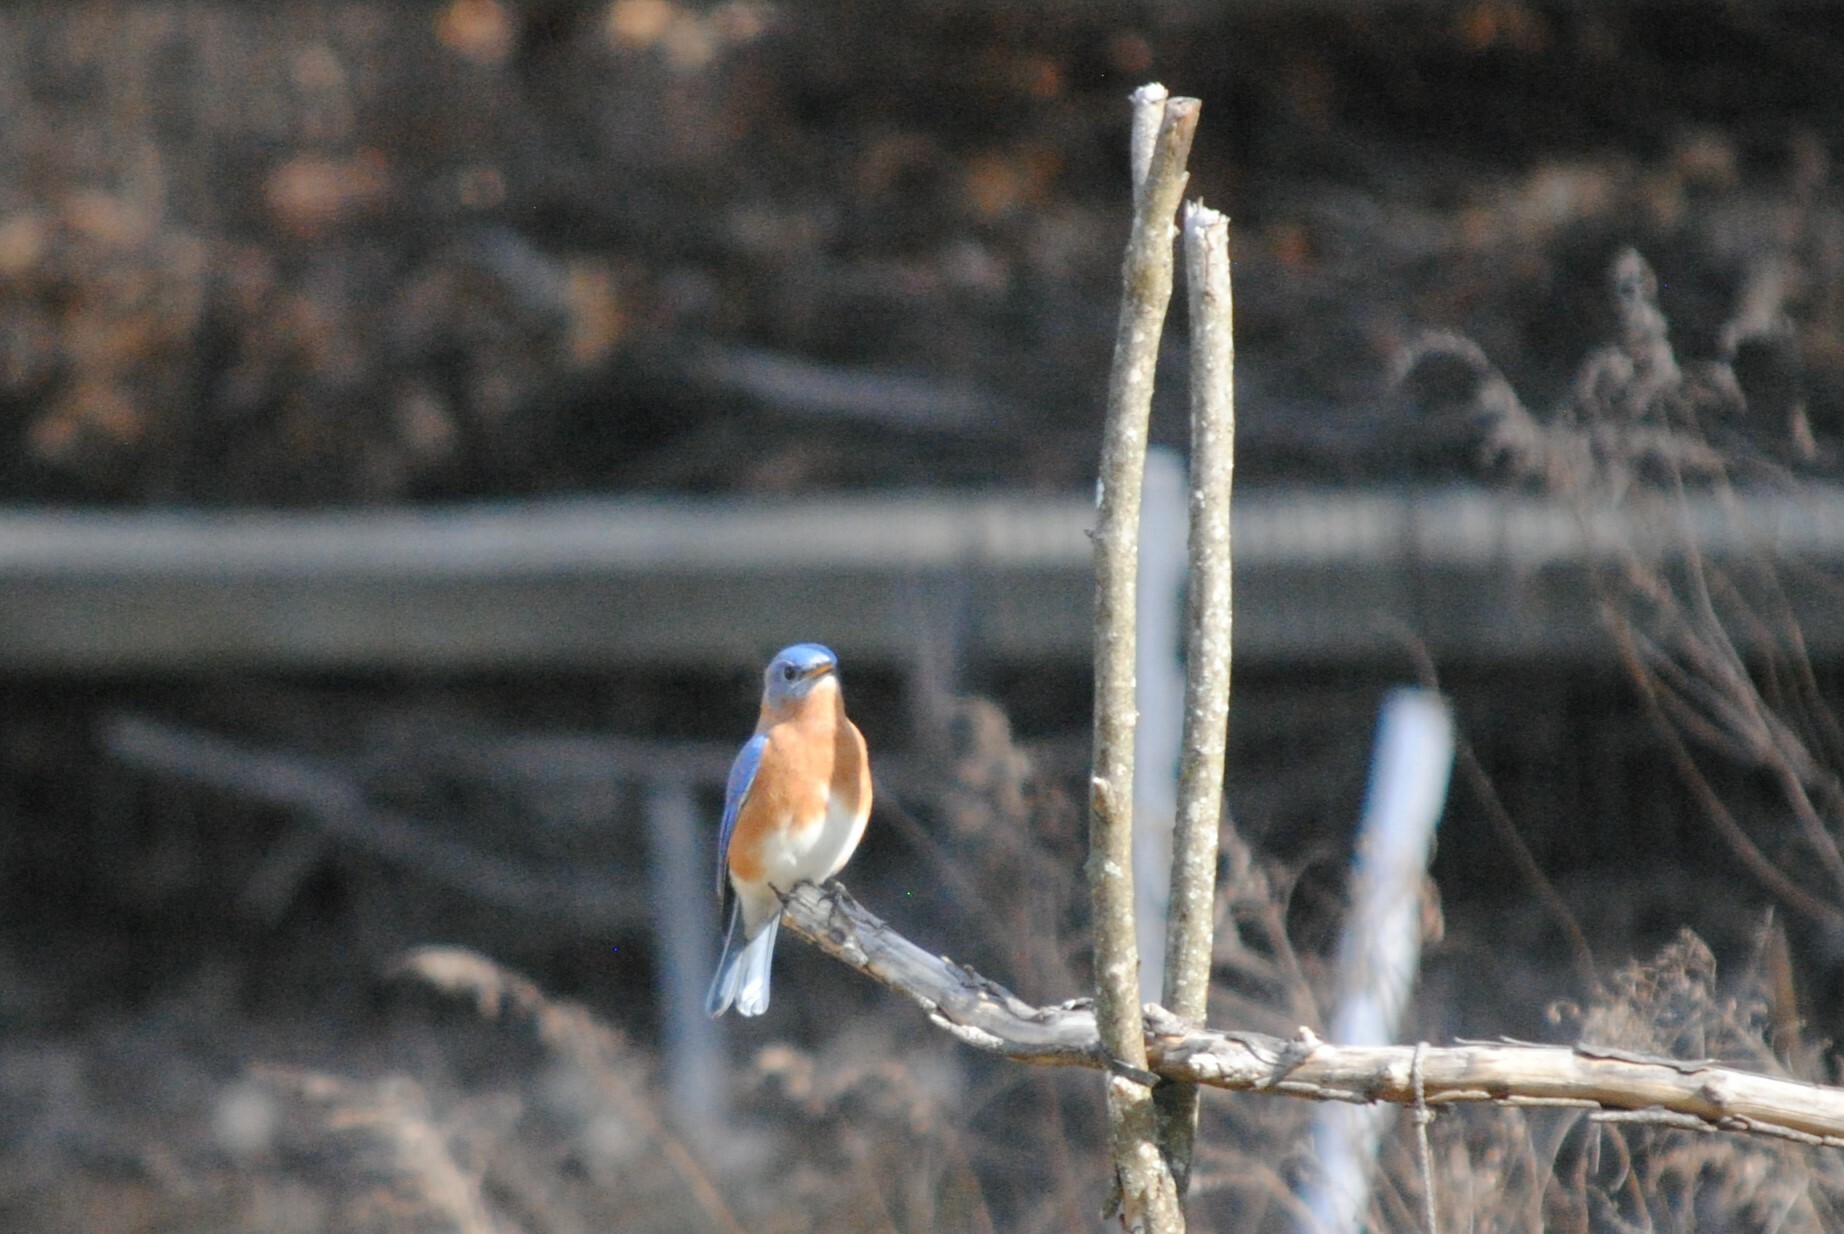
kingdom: Animalia
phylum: Chordata
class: Aves
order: Passeriformes
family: Turdidae
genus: Sialia
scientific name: Sialia sialis
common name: Eastern bluebird
